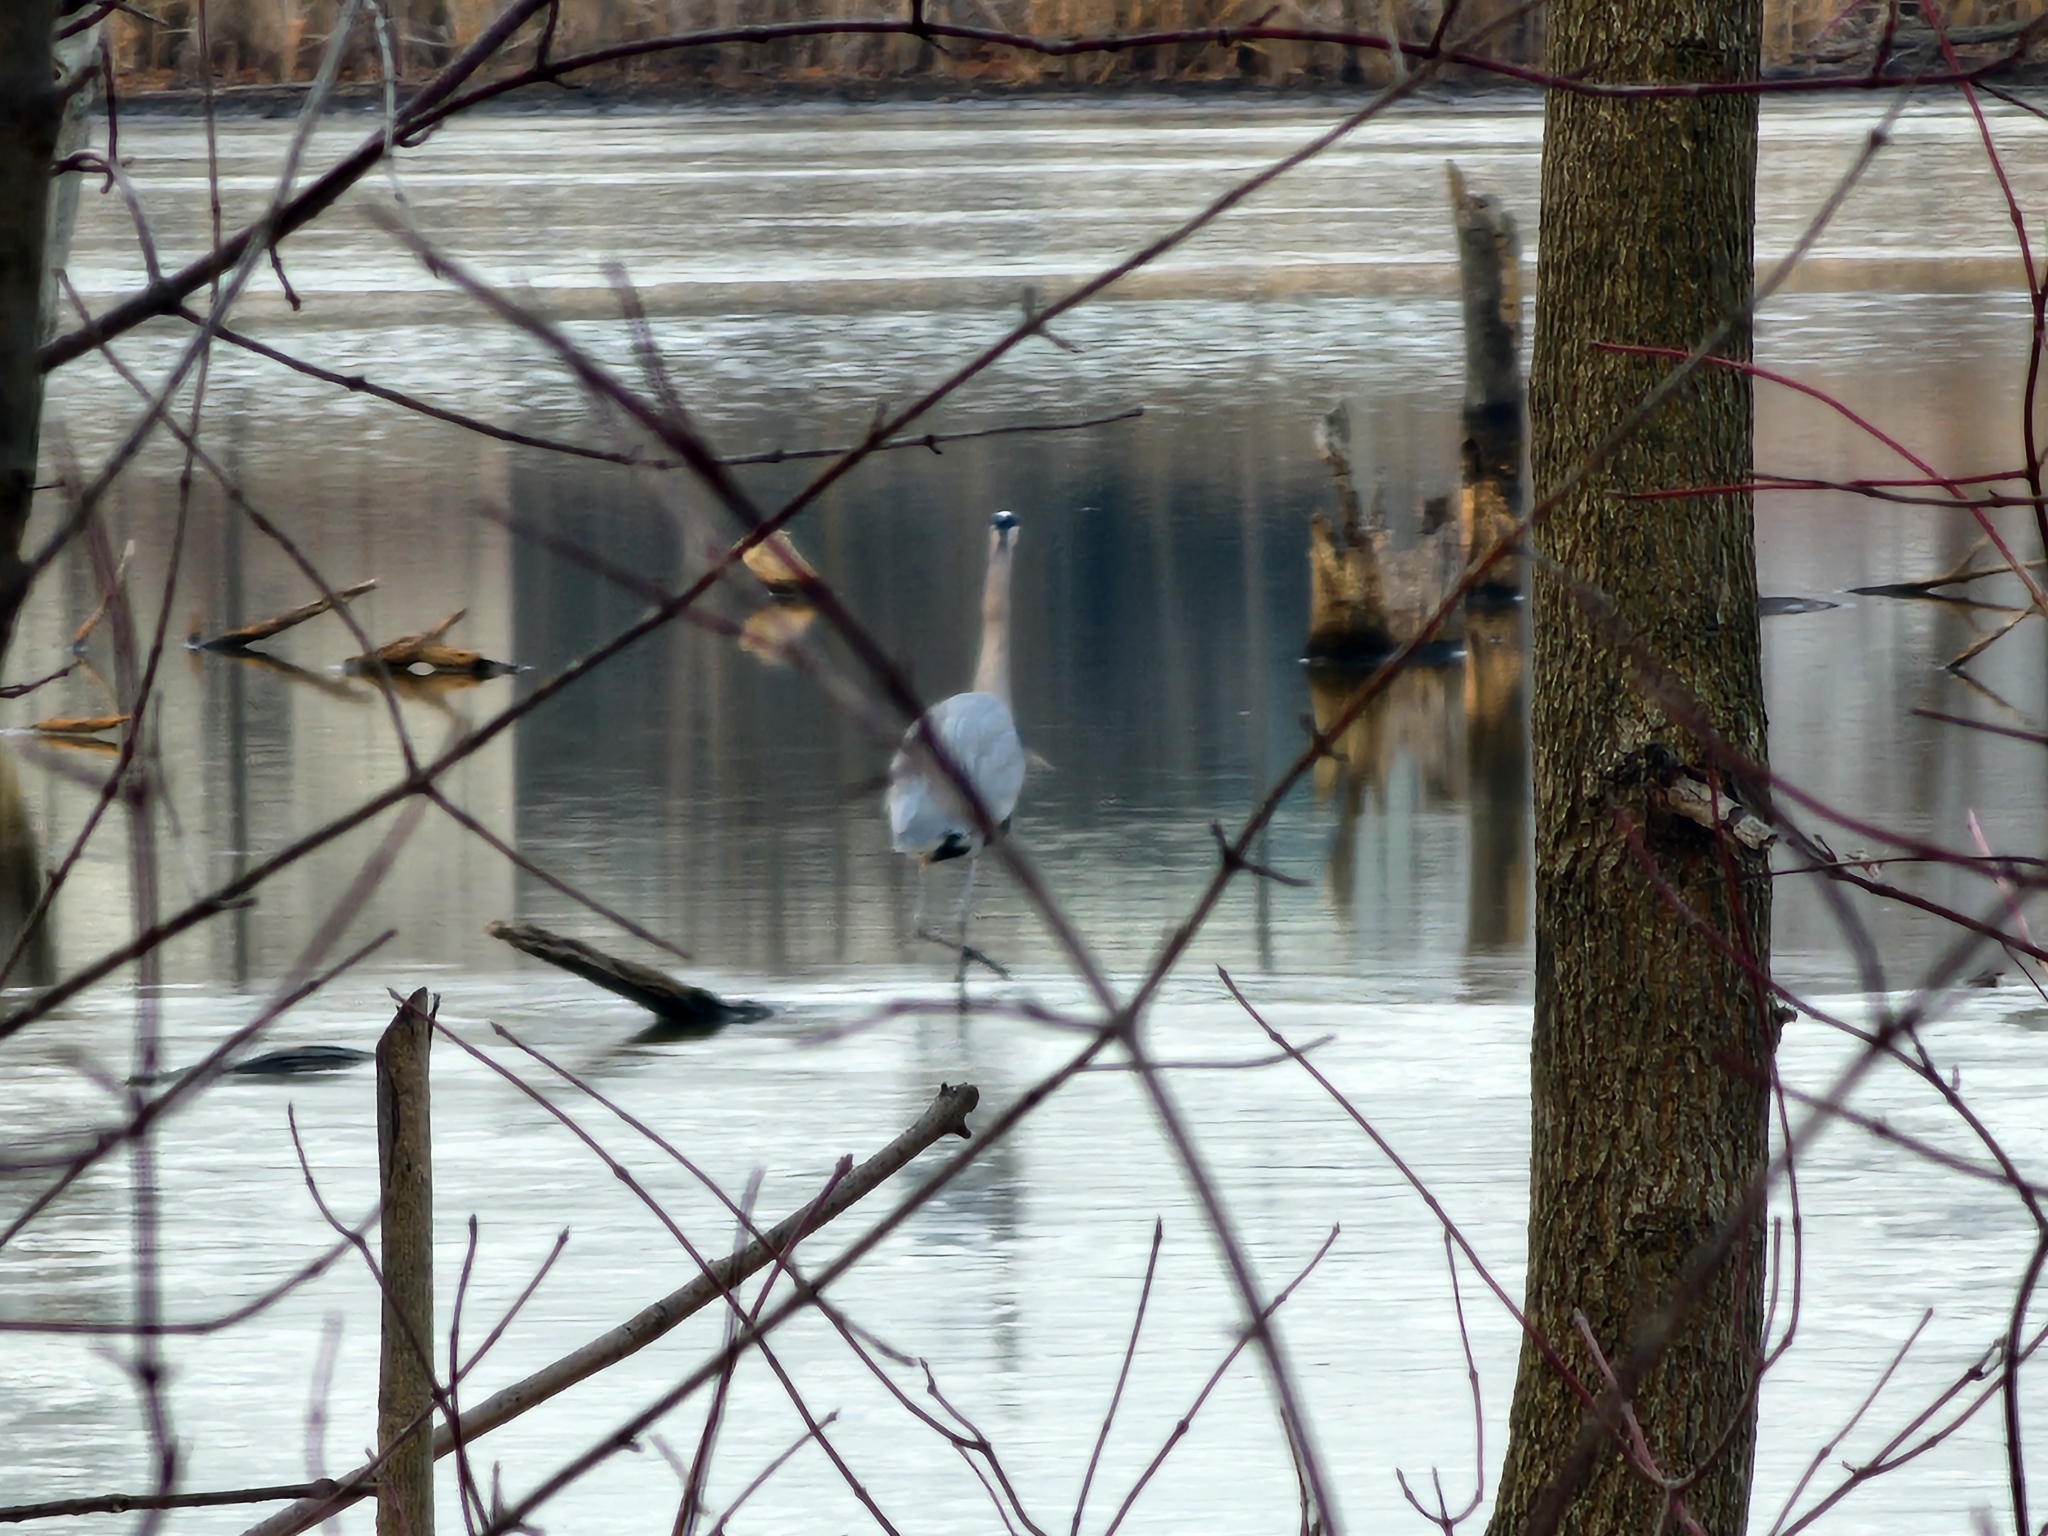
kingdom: Animalia
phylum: Chordata
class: Aves
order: Pelecaniformes
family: Ardeidae
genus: Ardea
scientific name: Ardea herodias
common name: Great blue heron
